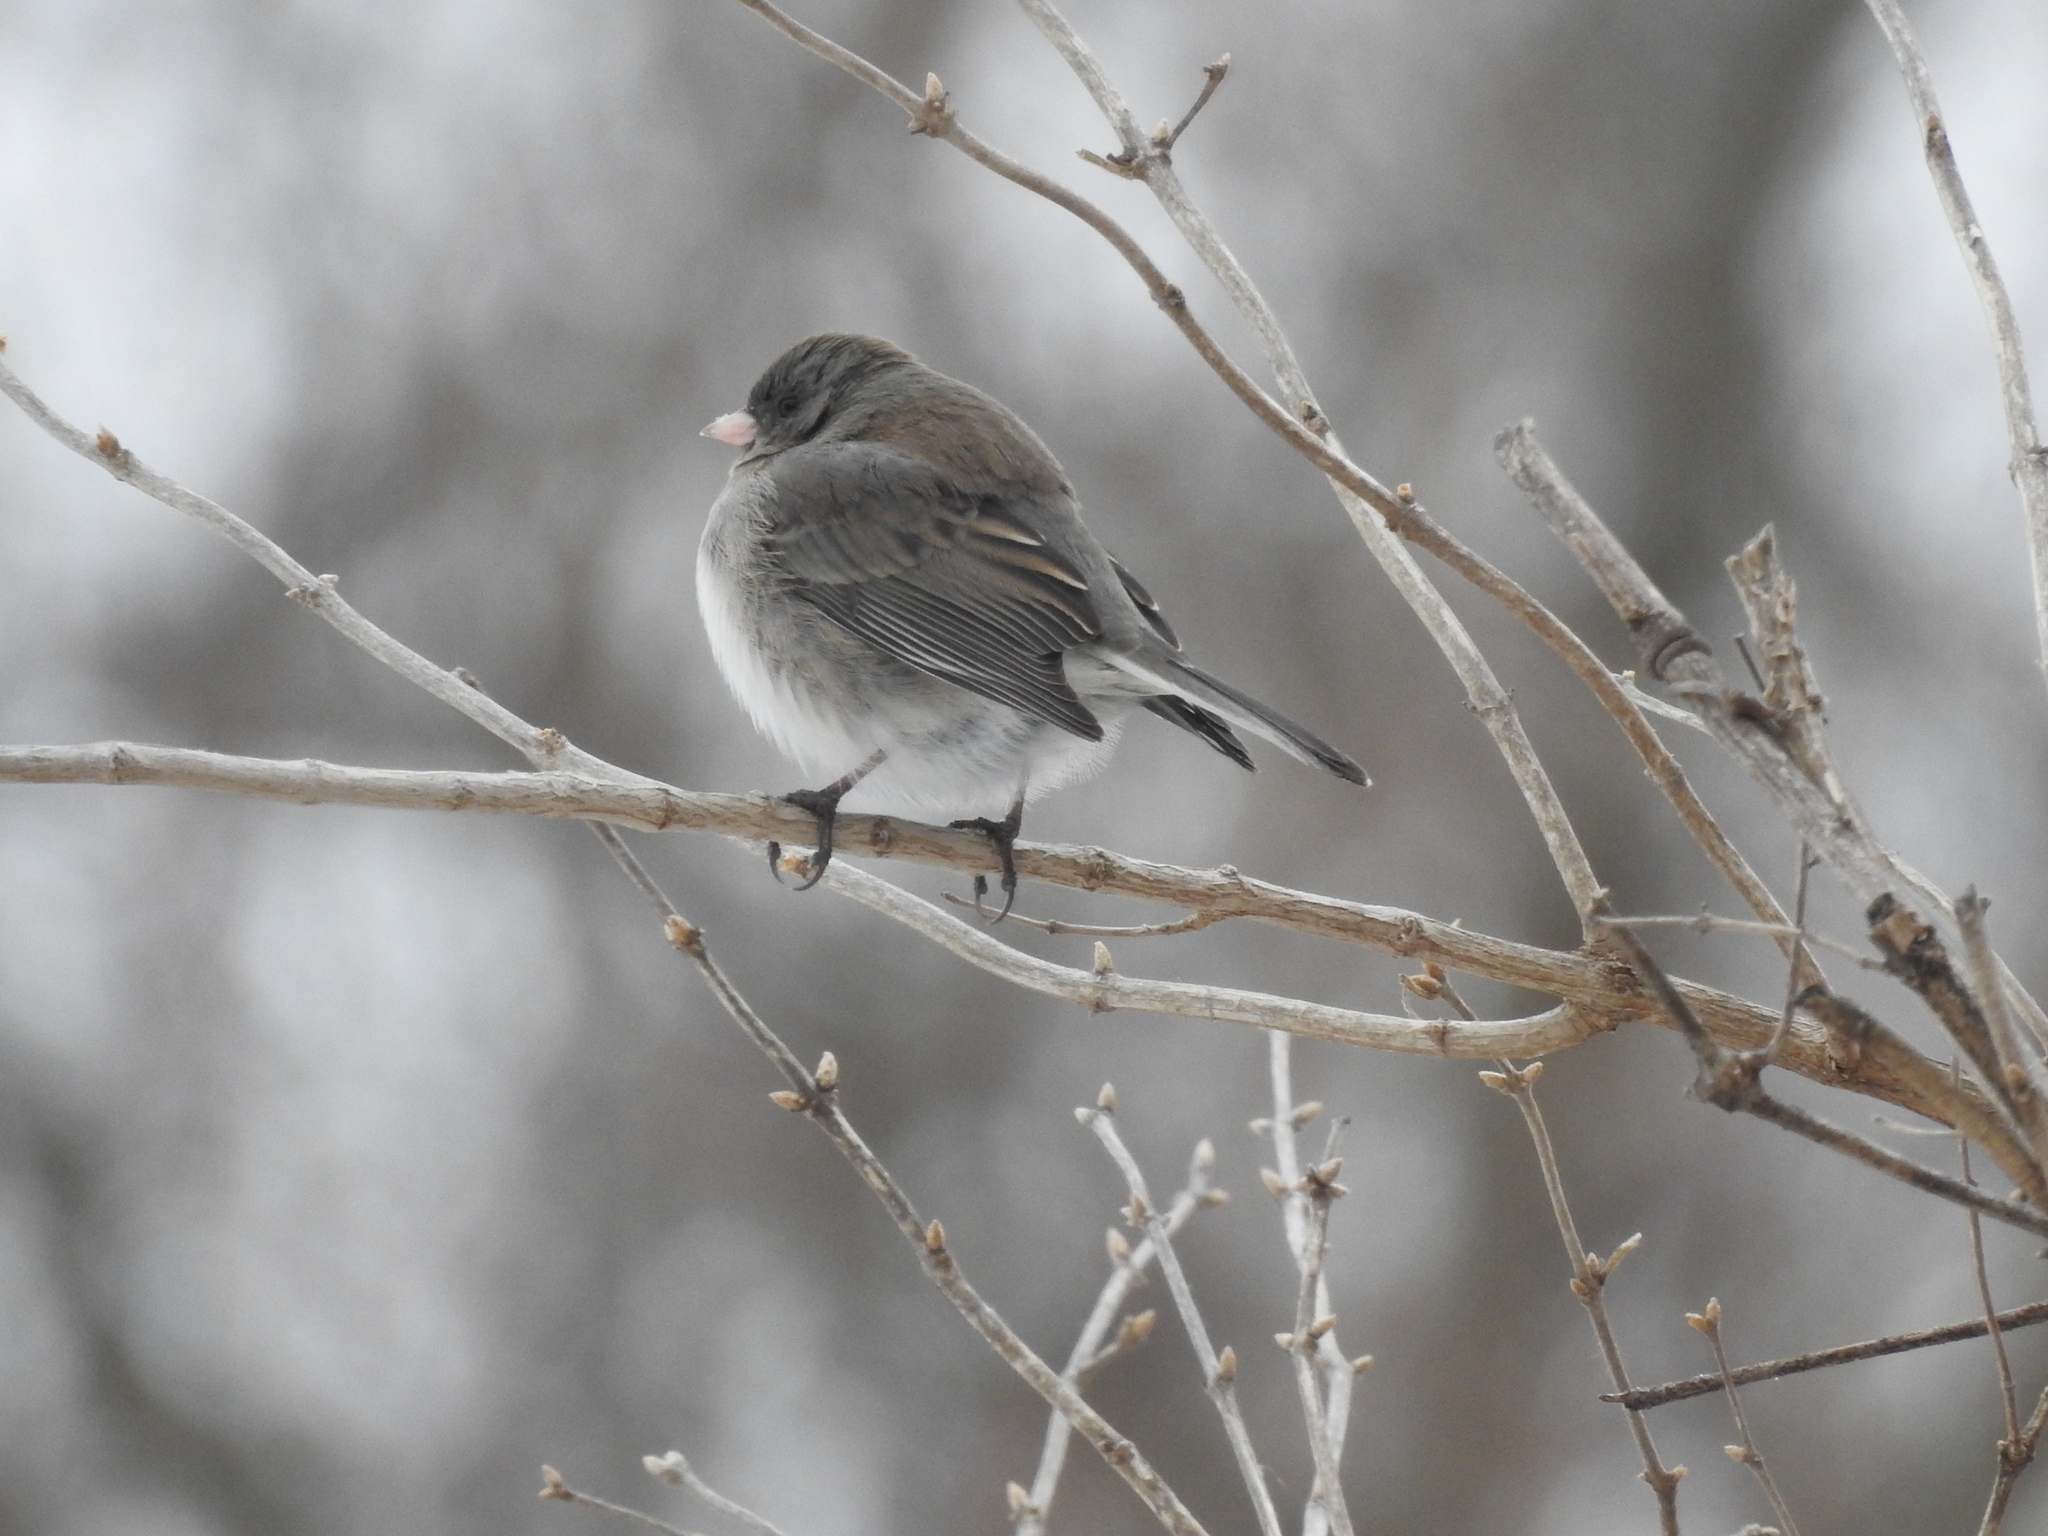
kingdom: Animalia
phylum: Chordata
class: Aves
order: Passeriformes
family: Passerellidae
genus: Junco
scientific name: Junco hyemalis
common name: Dark-eyed junco
